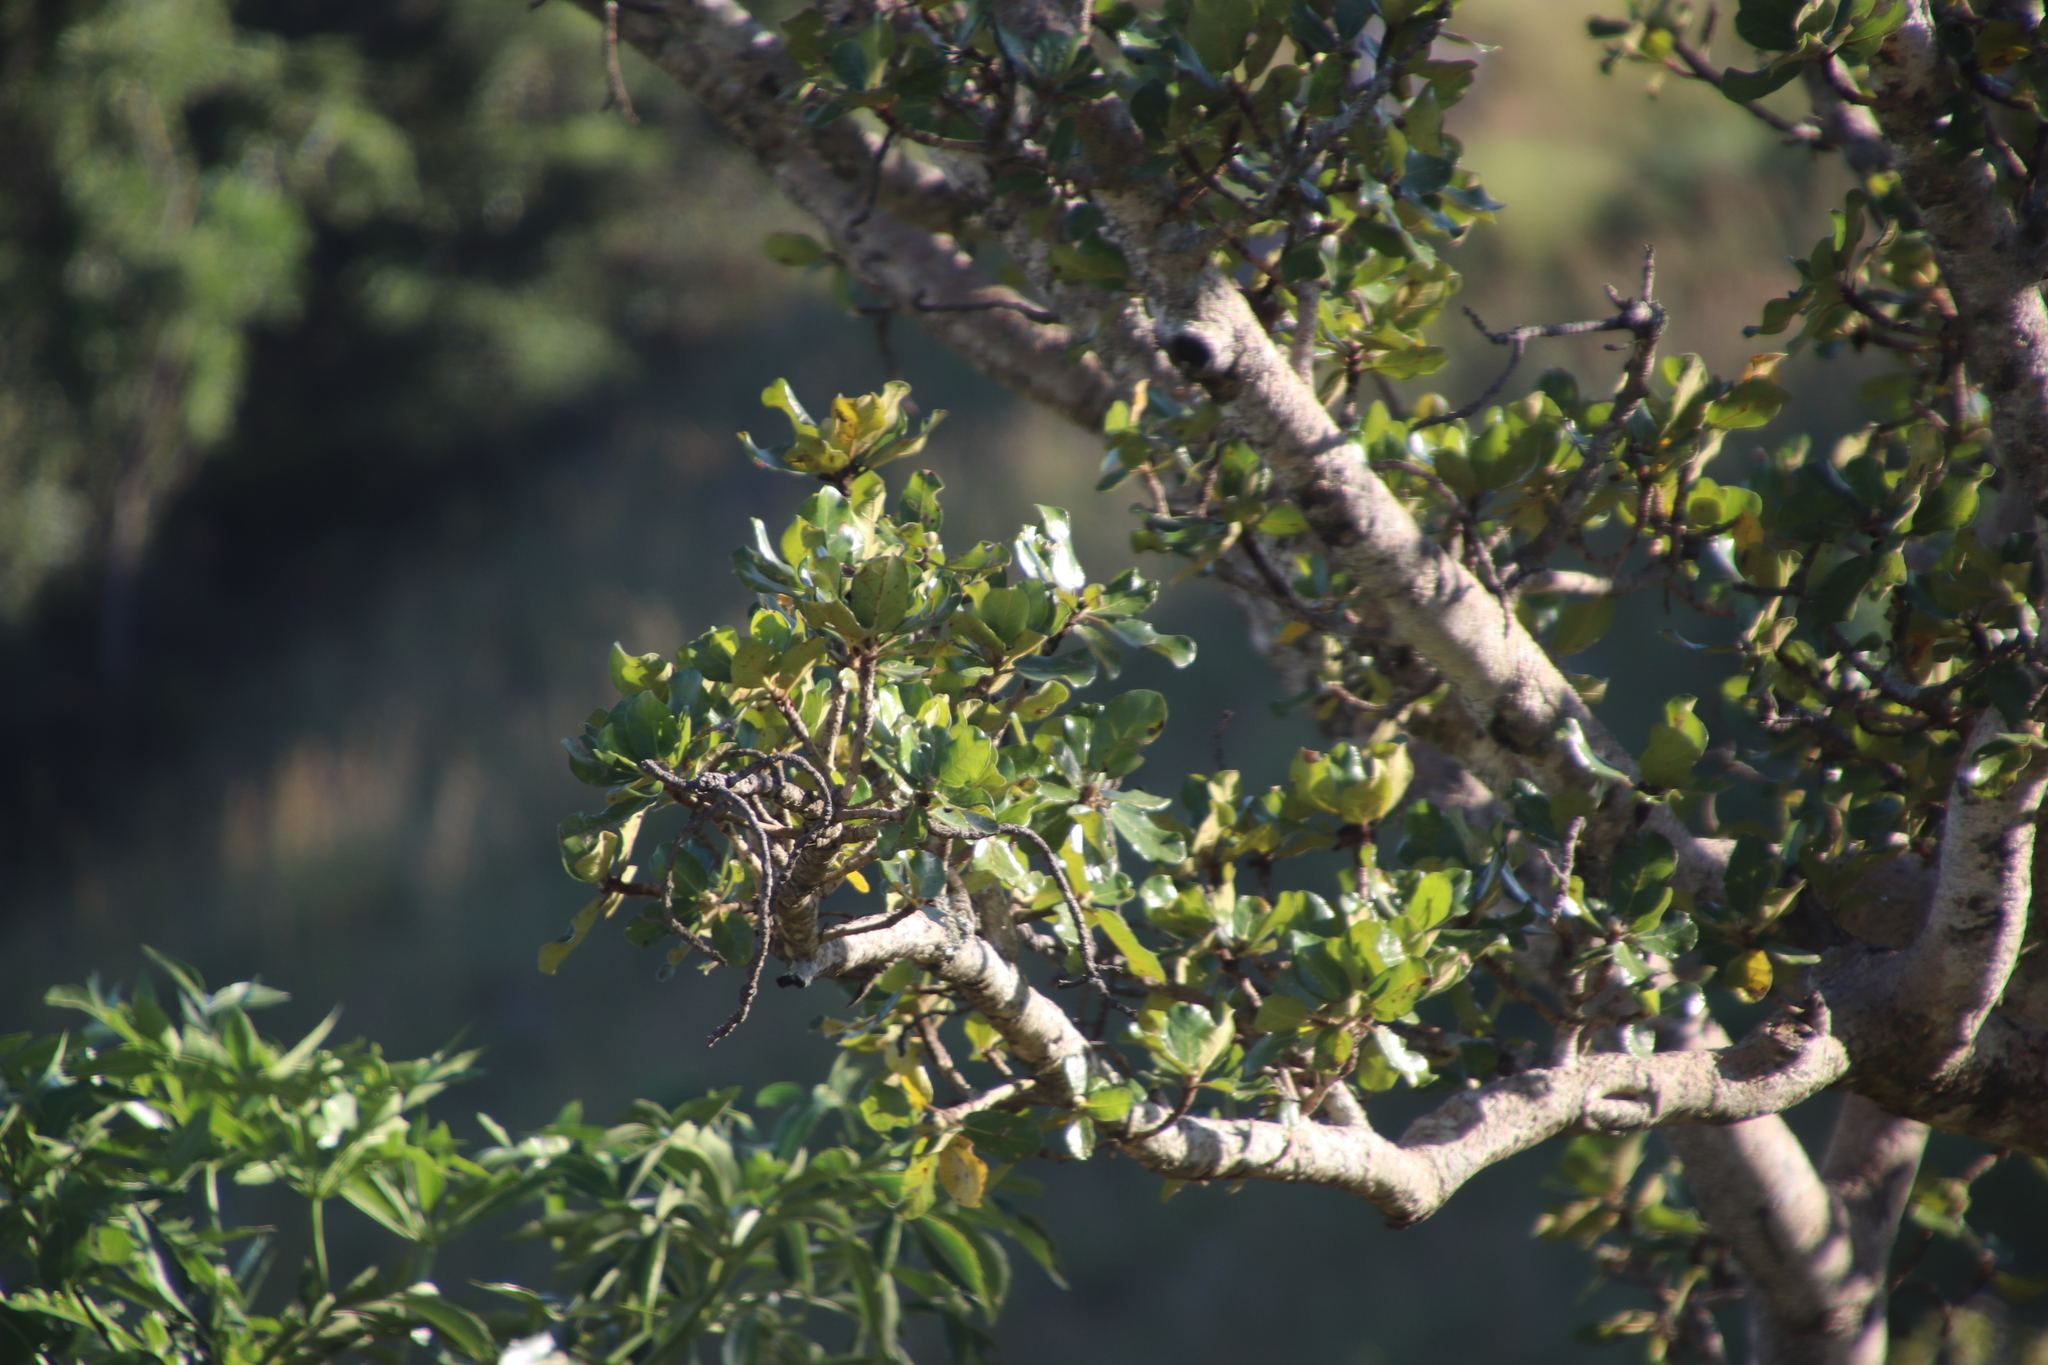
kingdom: Plantae
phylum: Tracheophyta
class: Magnoliopsida
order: Rosales
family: Moraceae
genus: Ficus
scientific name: Ficus glumosa
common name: Hairy rock fig
